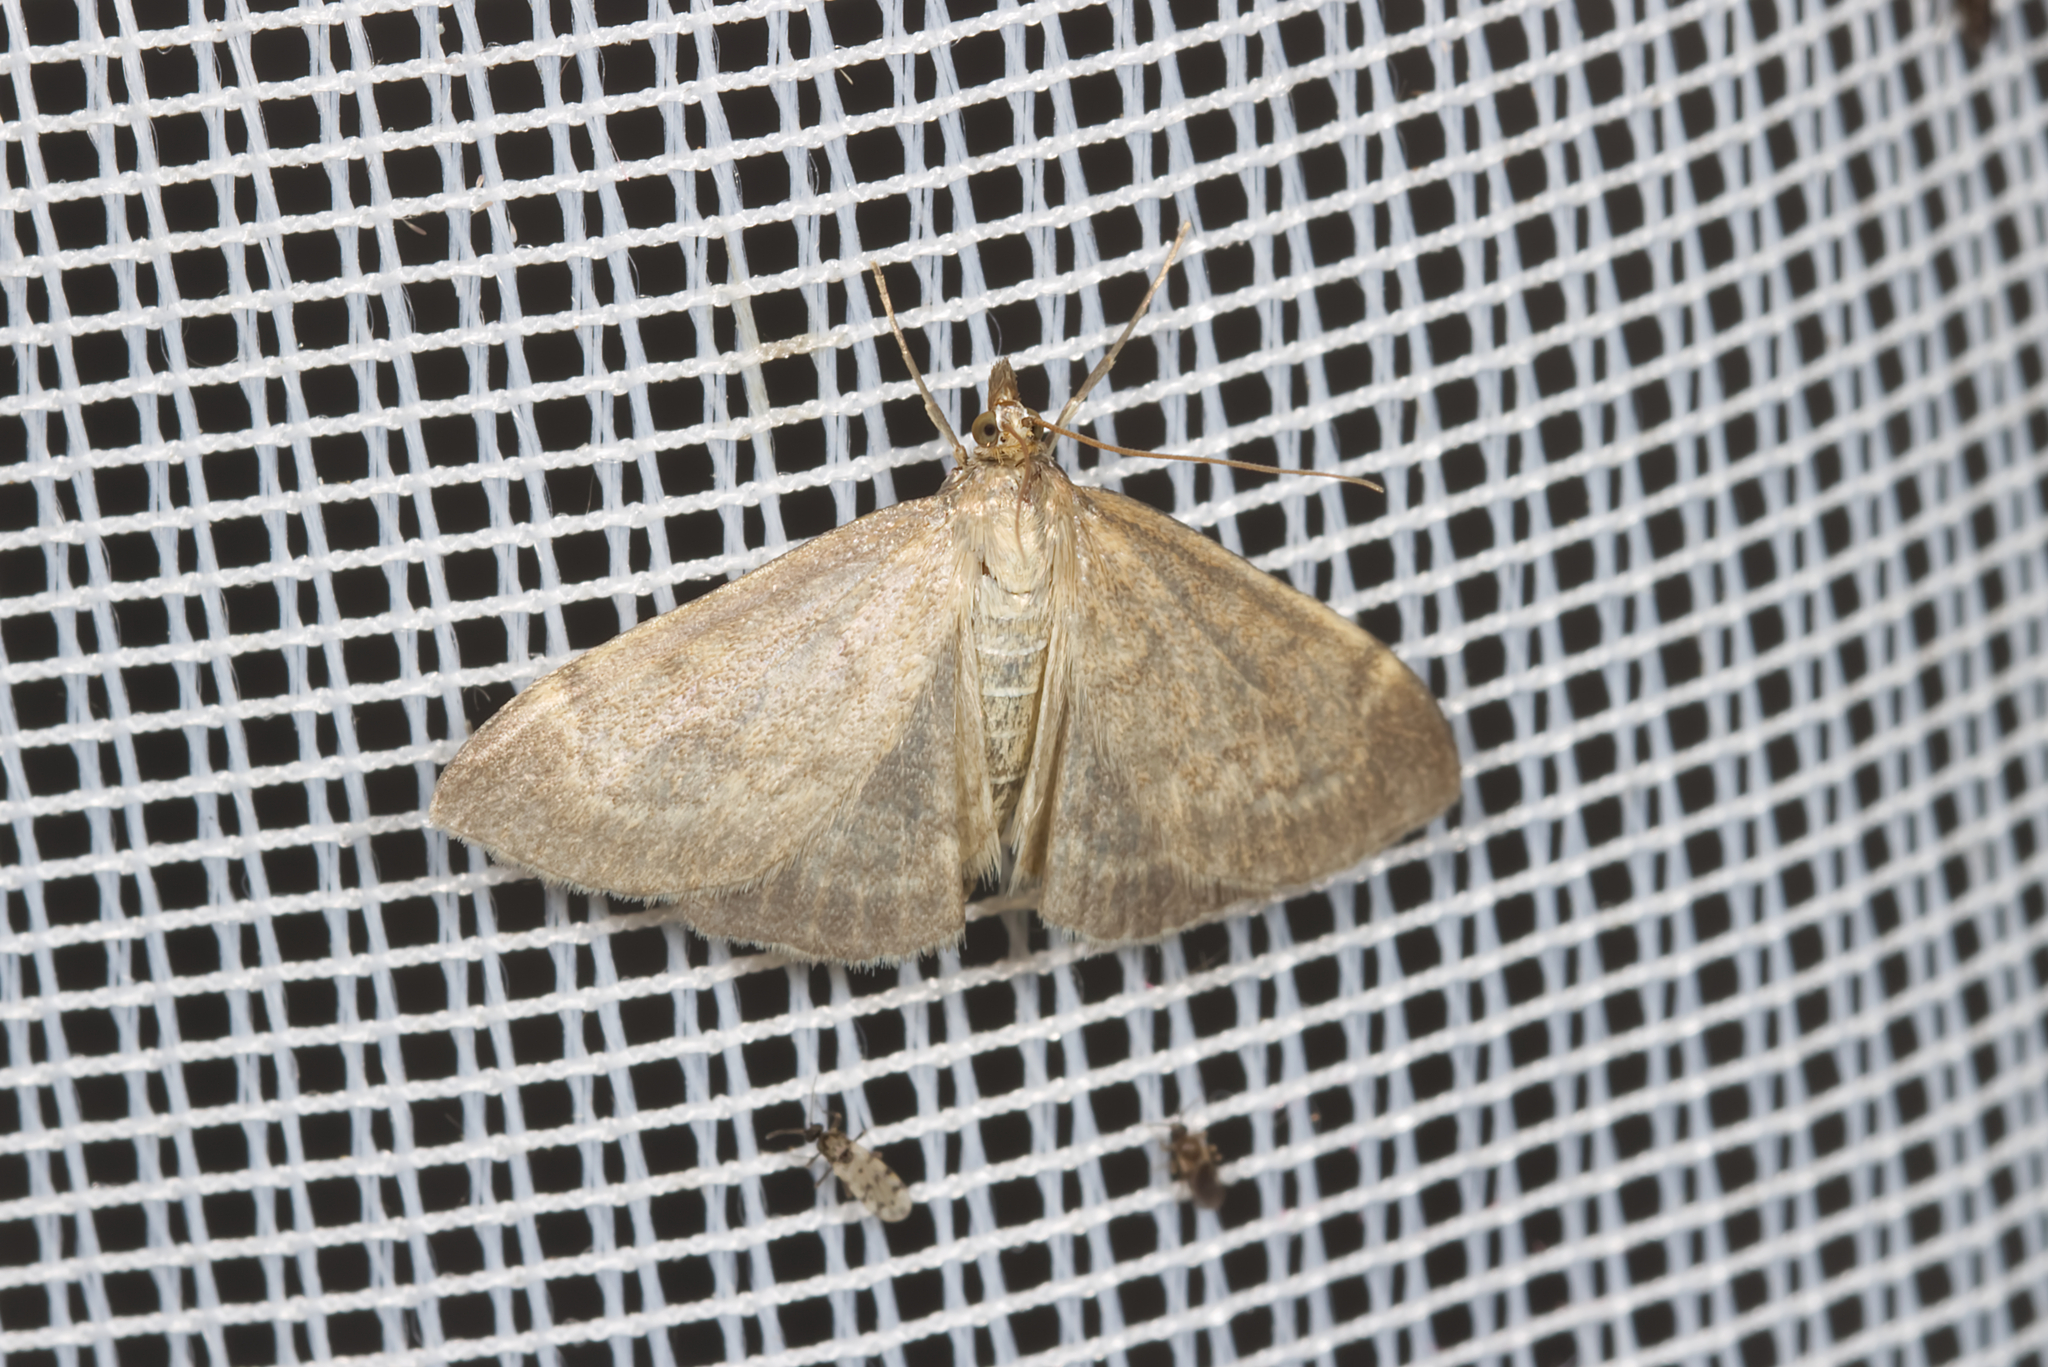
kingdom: Animalia
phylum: Arthropoda
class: Insecta
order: Lepidoptera
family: Crambidae
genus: Anania
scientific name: Anania fuscalis
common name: Cinerous pearl
